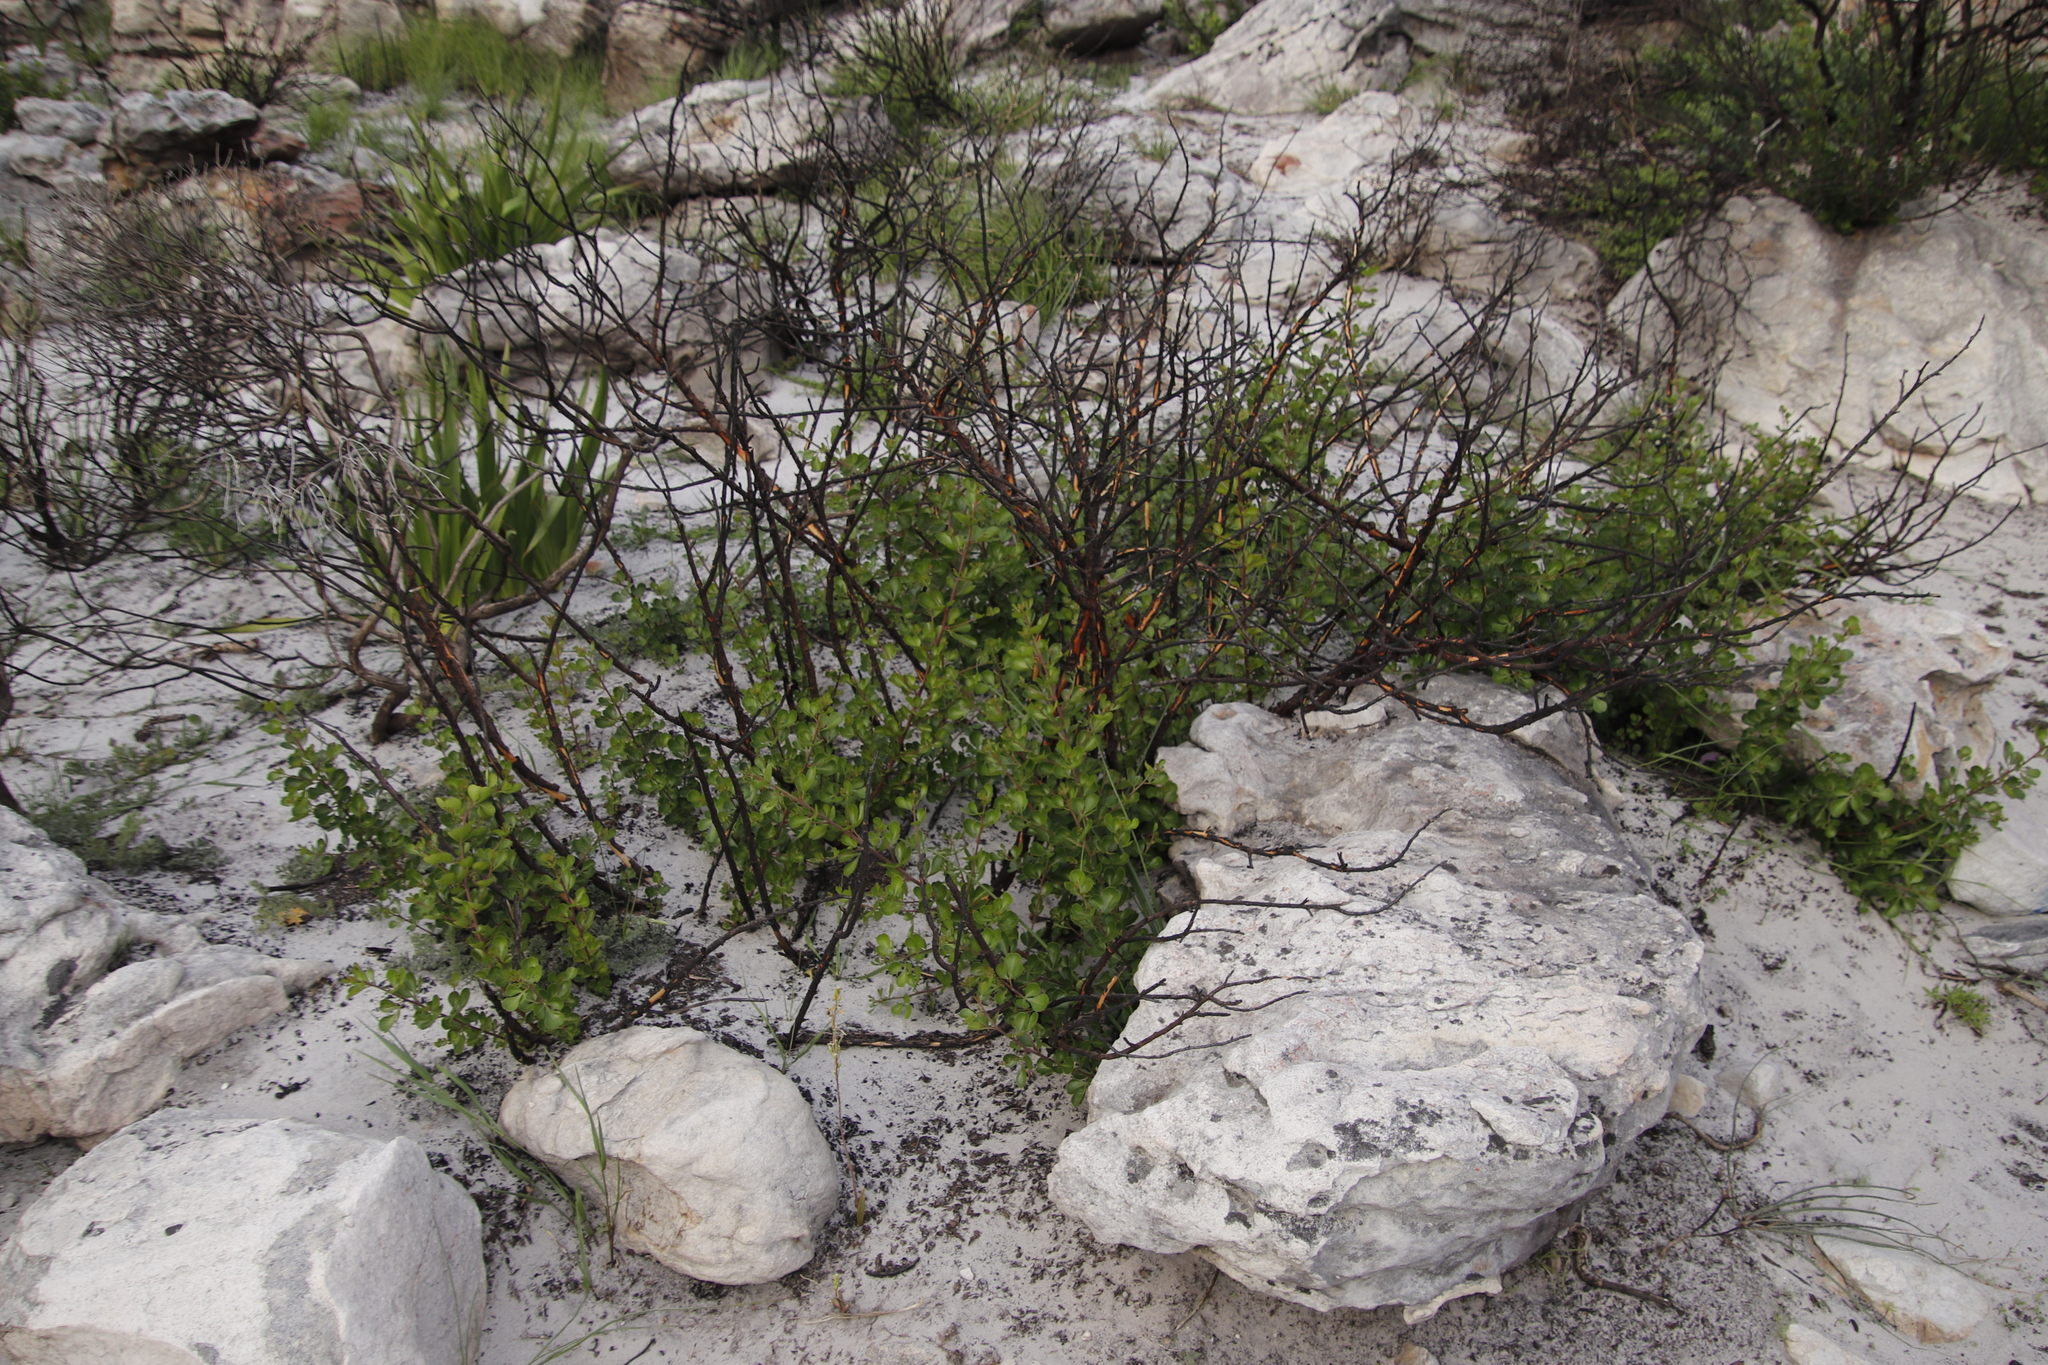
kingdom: Plantae
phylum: Tracheophyta
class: Magnoliopsida
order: Sapindales
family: Anacardiaceae
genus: Searsia
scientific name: Searsia lucida
